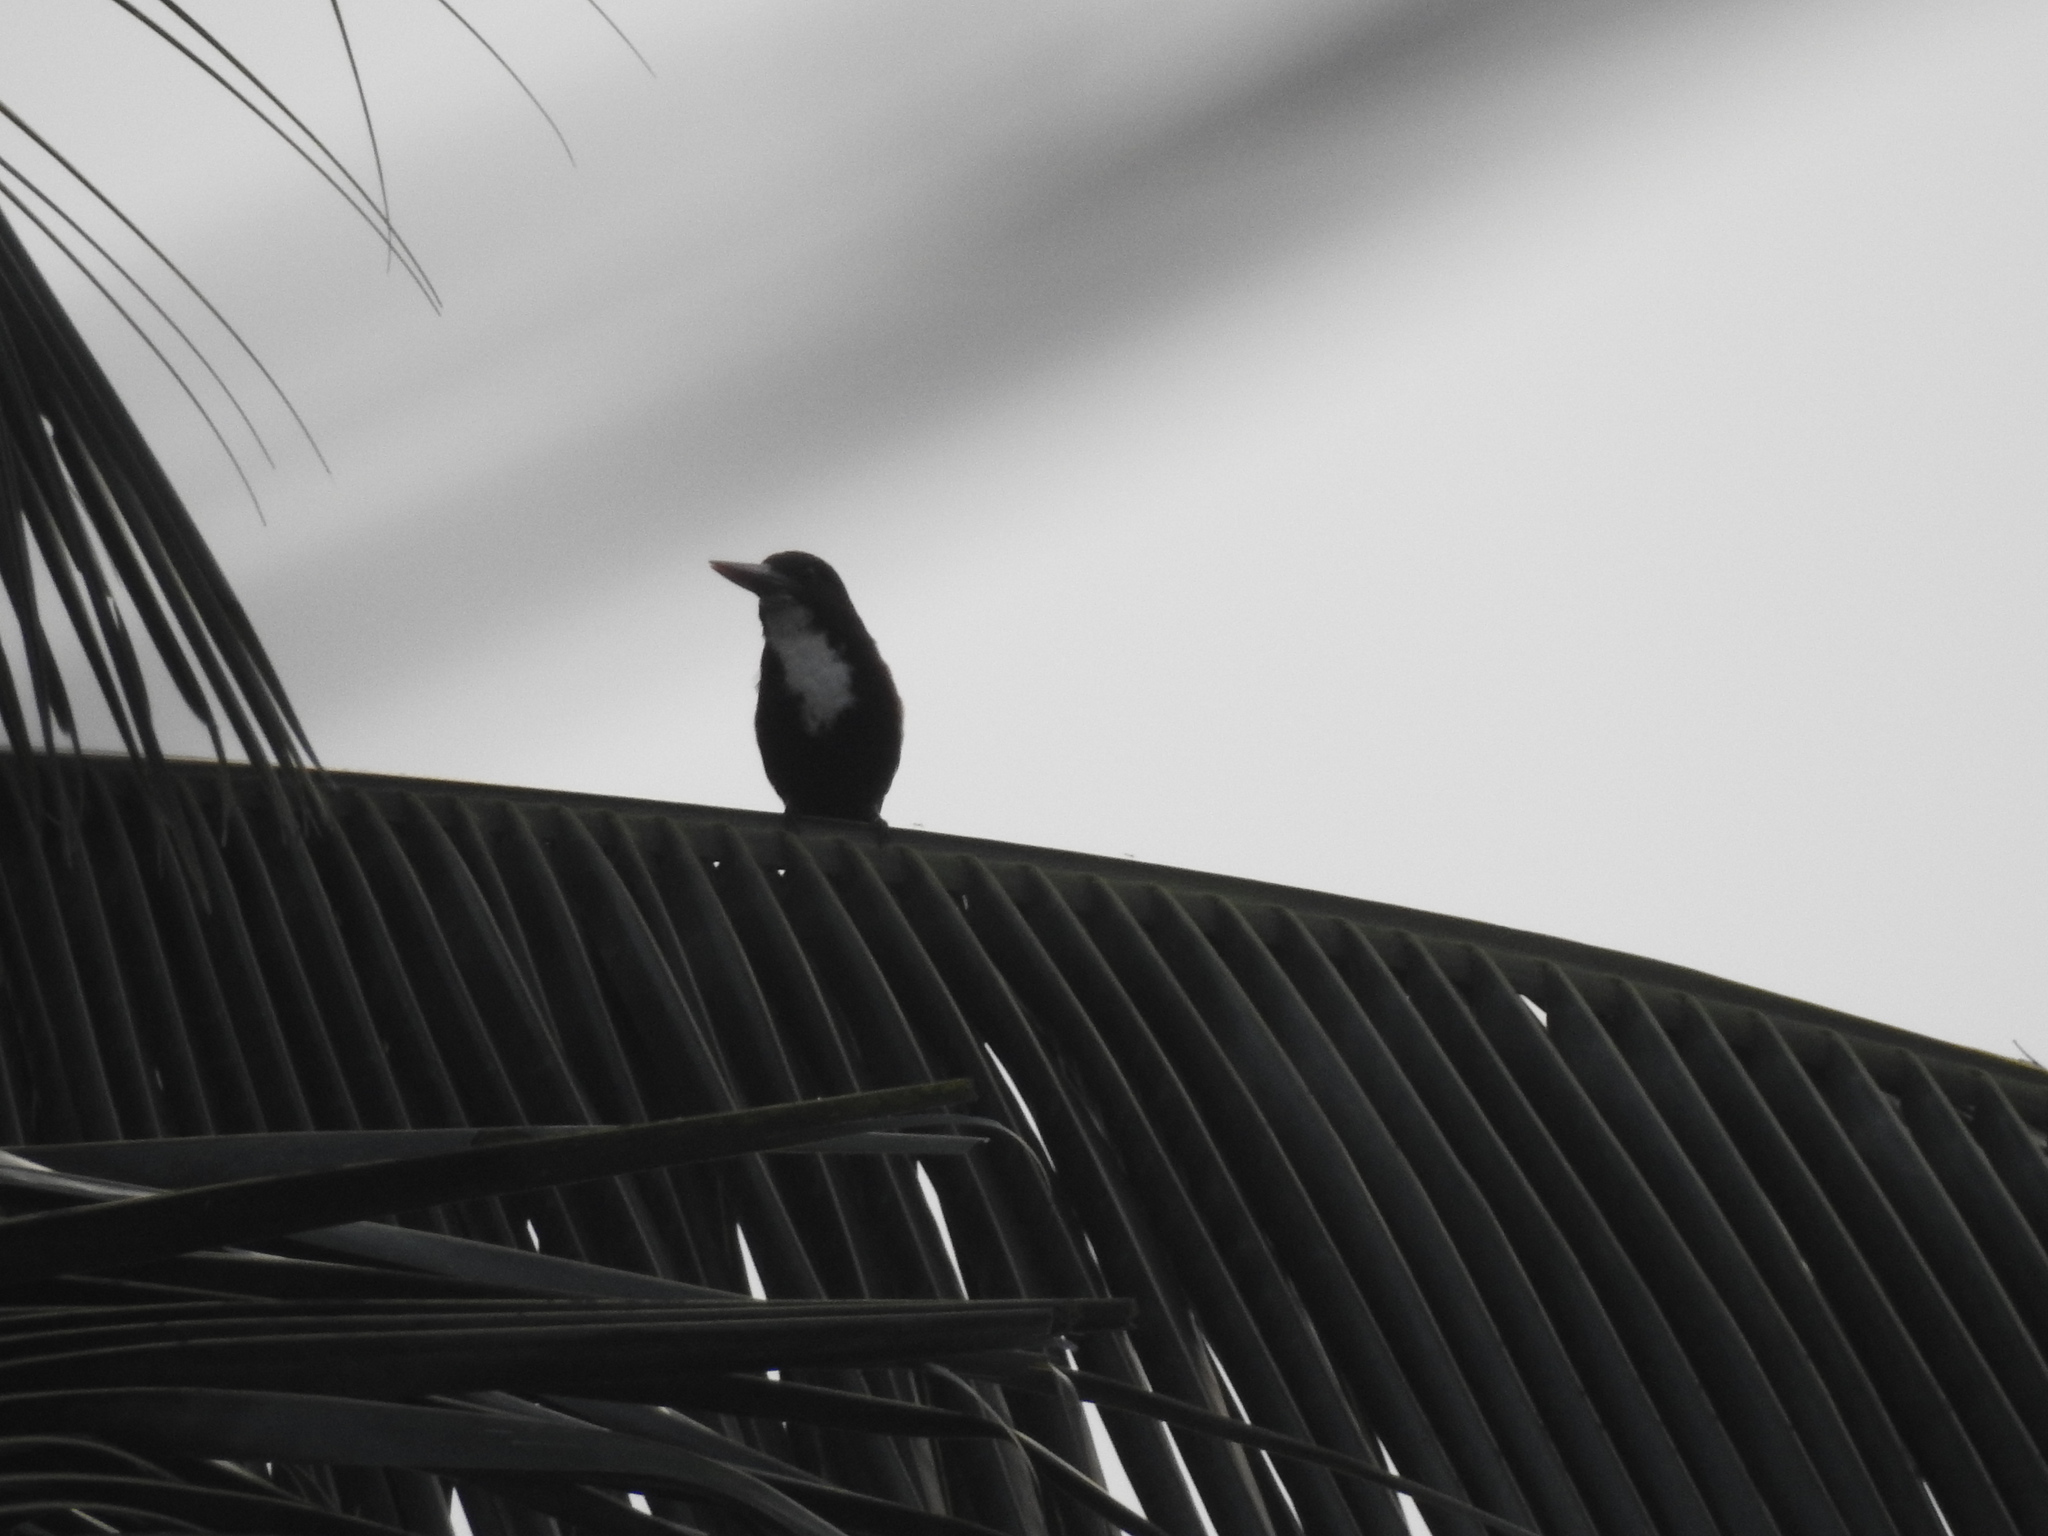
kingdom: Animalia
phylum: Chordata
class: Aves
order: Coraciiformes
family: Alcedinidae
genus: Halcyon
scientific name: Halcyon smyrnensis
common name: White-throated kingfisher
